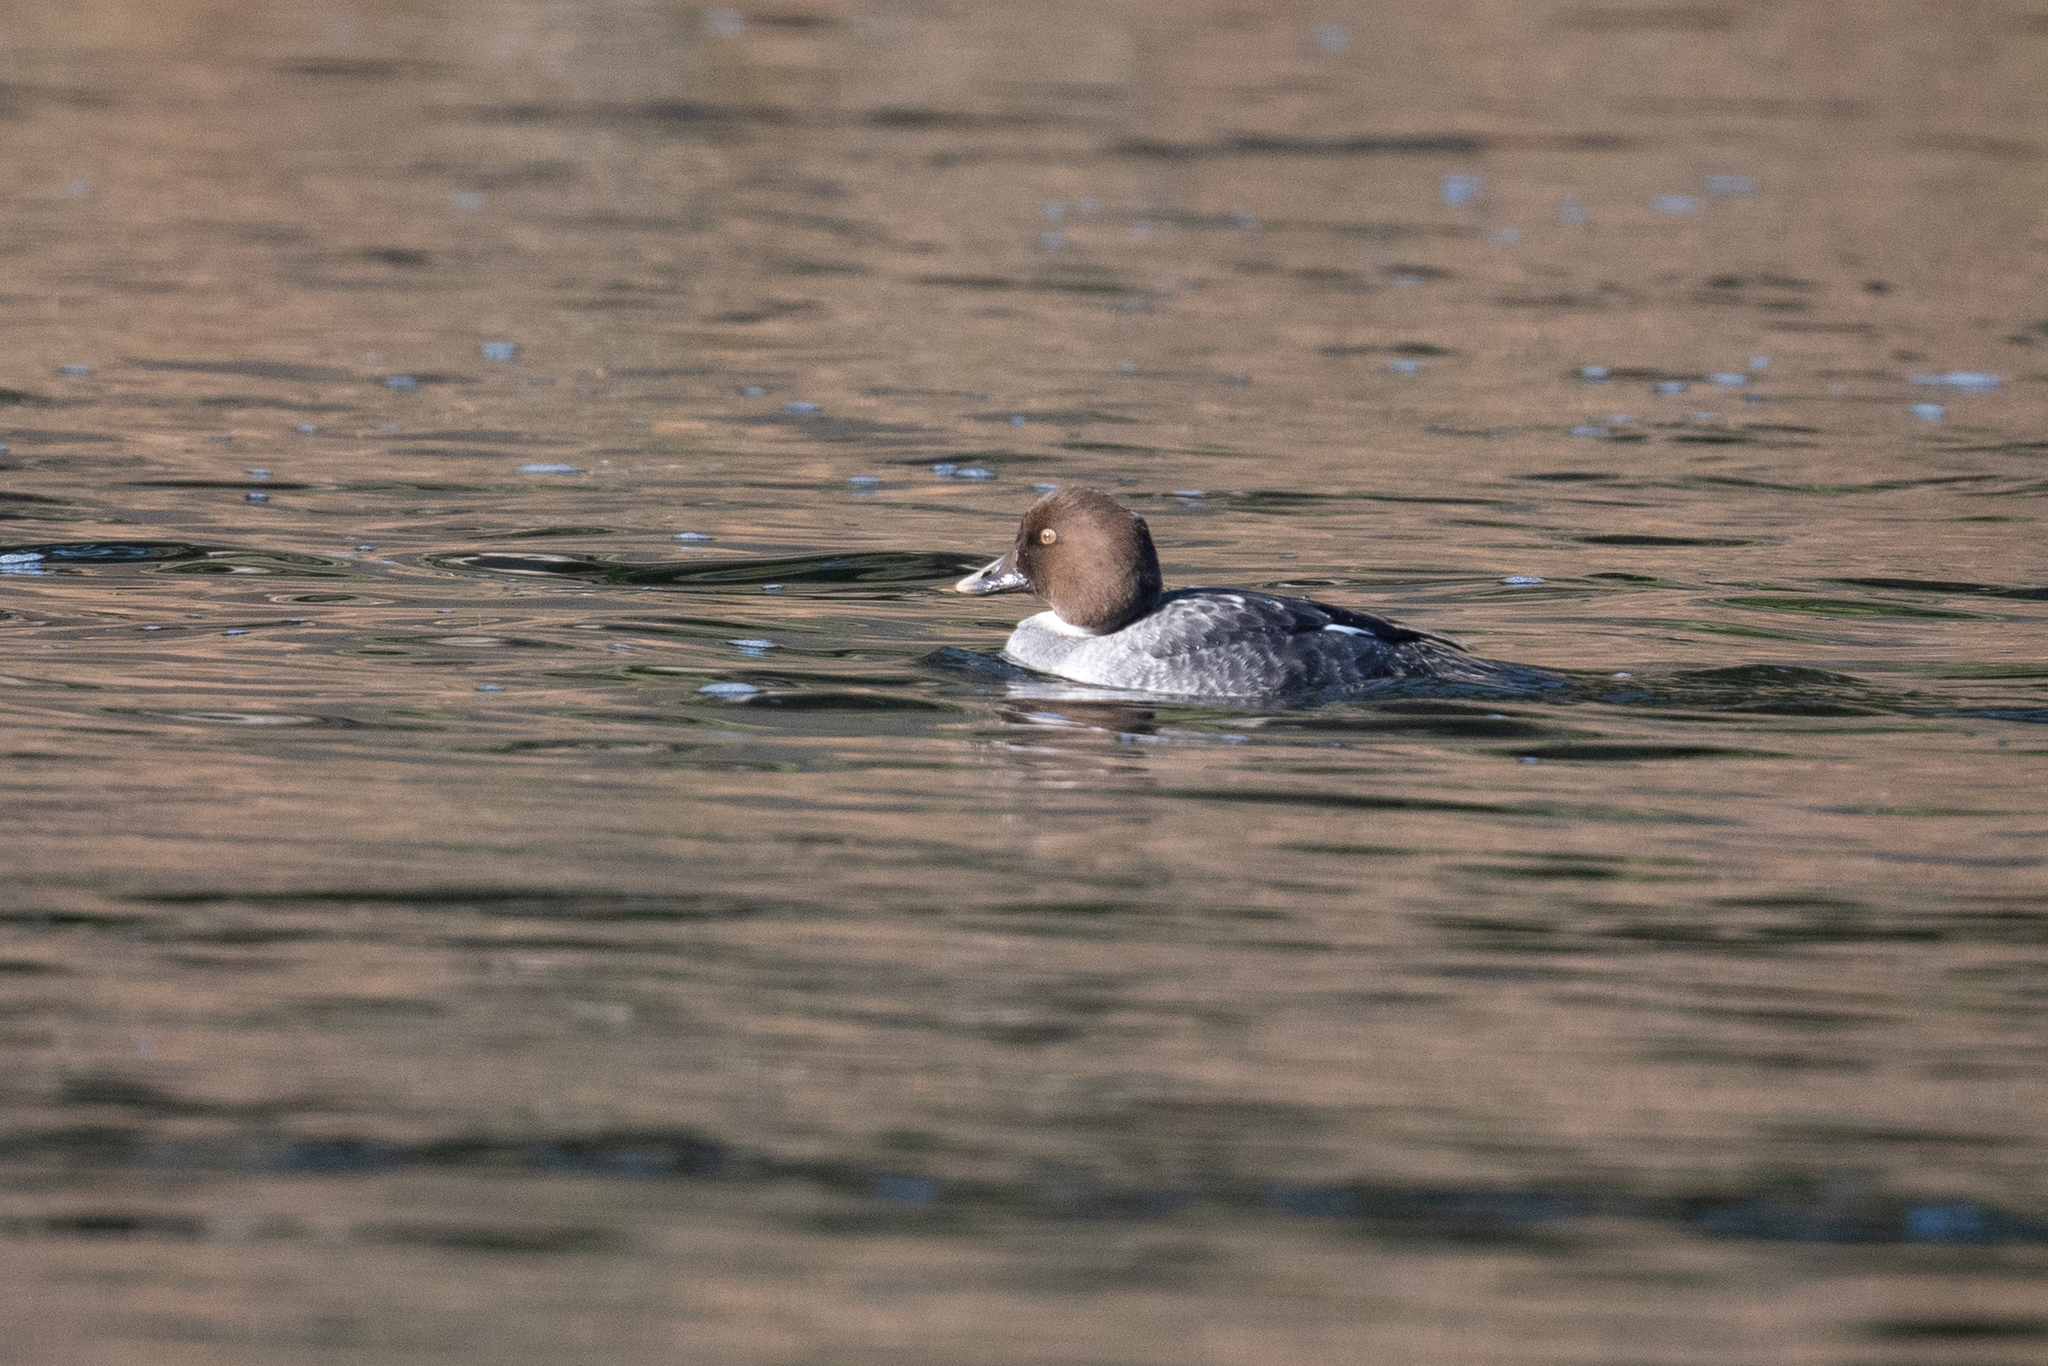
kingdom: Animalia
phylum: Chordata
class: Aves
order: Anseriformes
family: Anatidae
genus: Bucephala
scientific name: Bucephala clangula
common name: Common goldeneye
